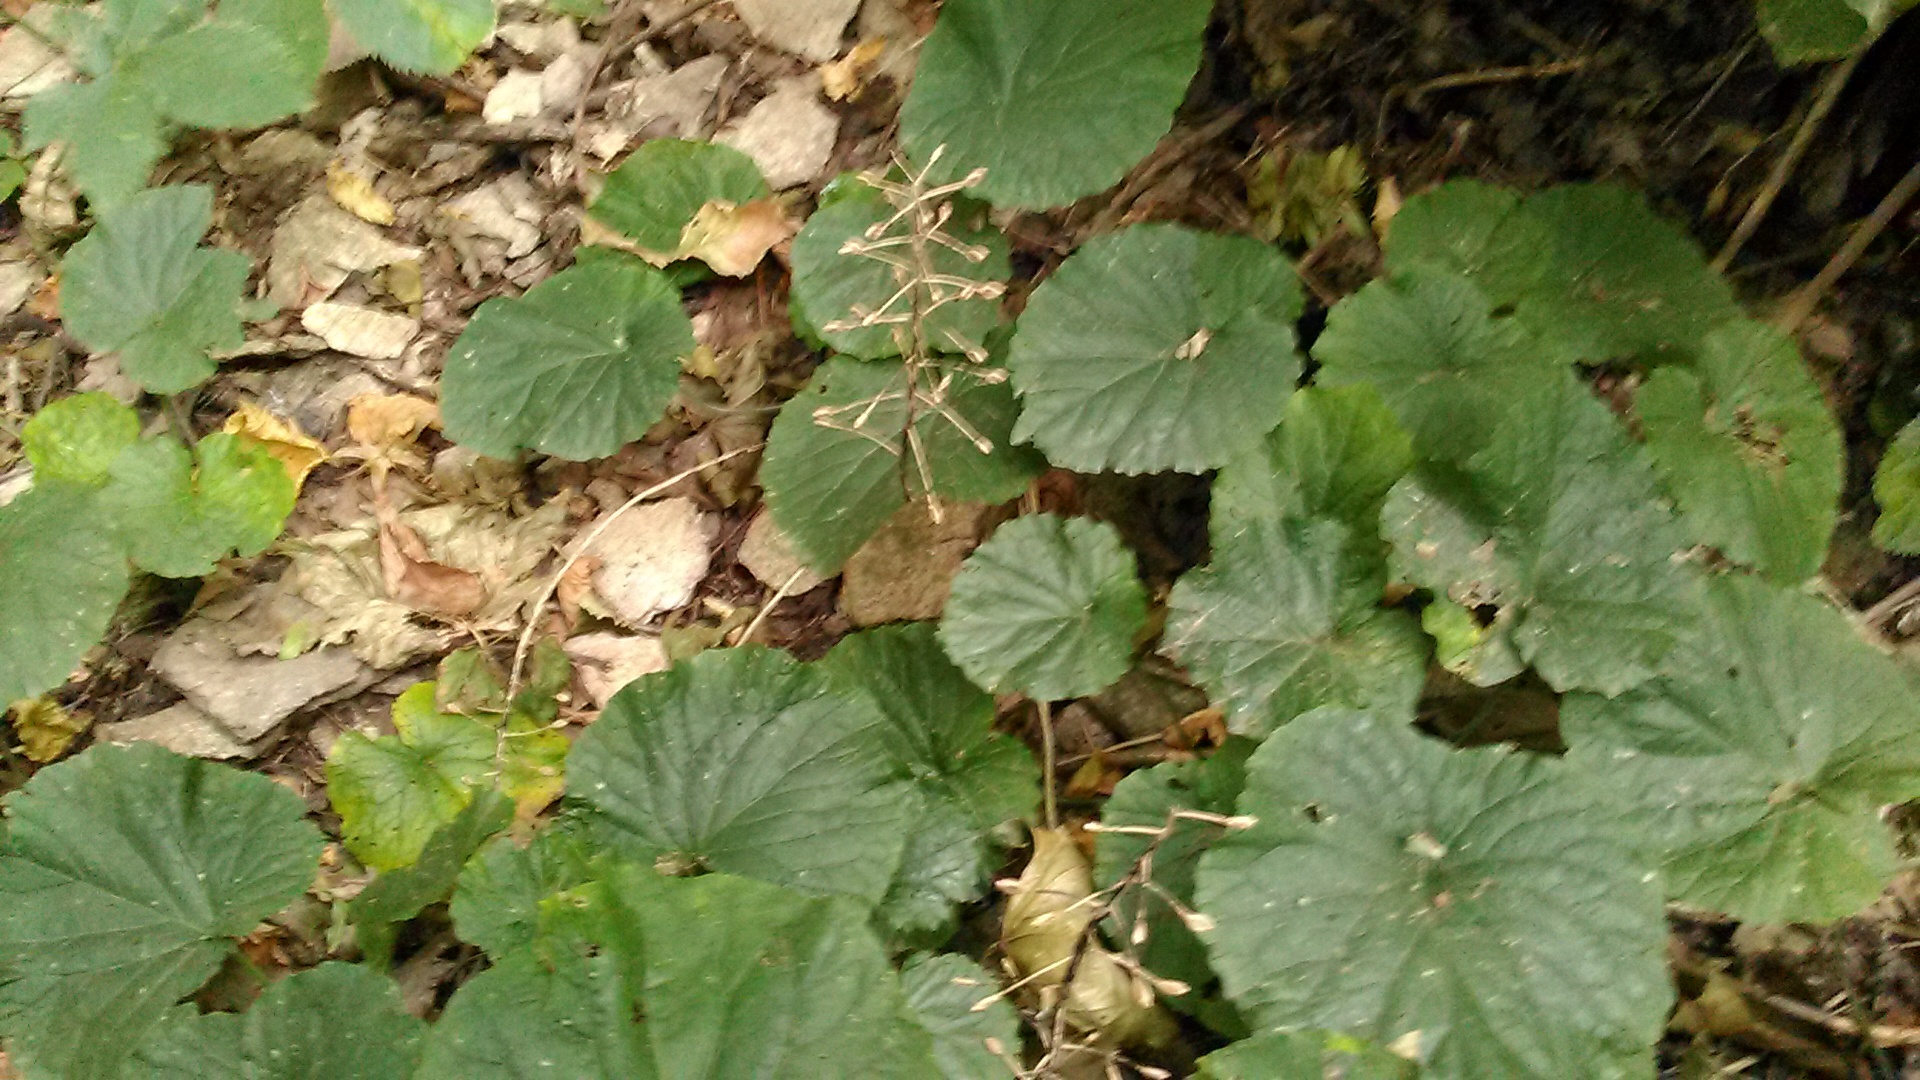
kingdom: Plantae
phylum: Tracheophyta
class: Magnoliopsida
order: Brassicales
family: Brassicaceae
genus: Pachyphragma
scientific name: Pachyphragma macrophyllum
